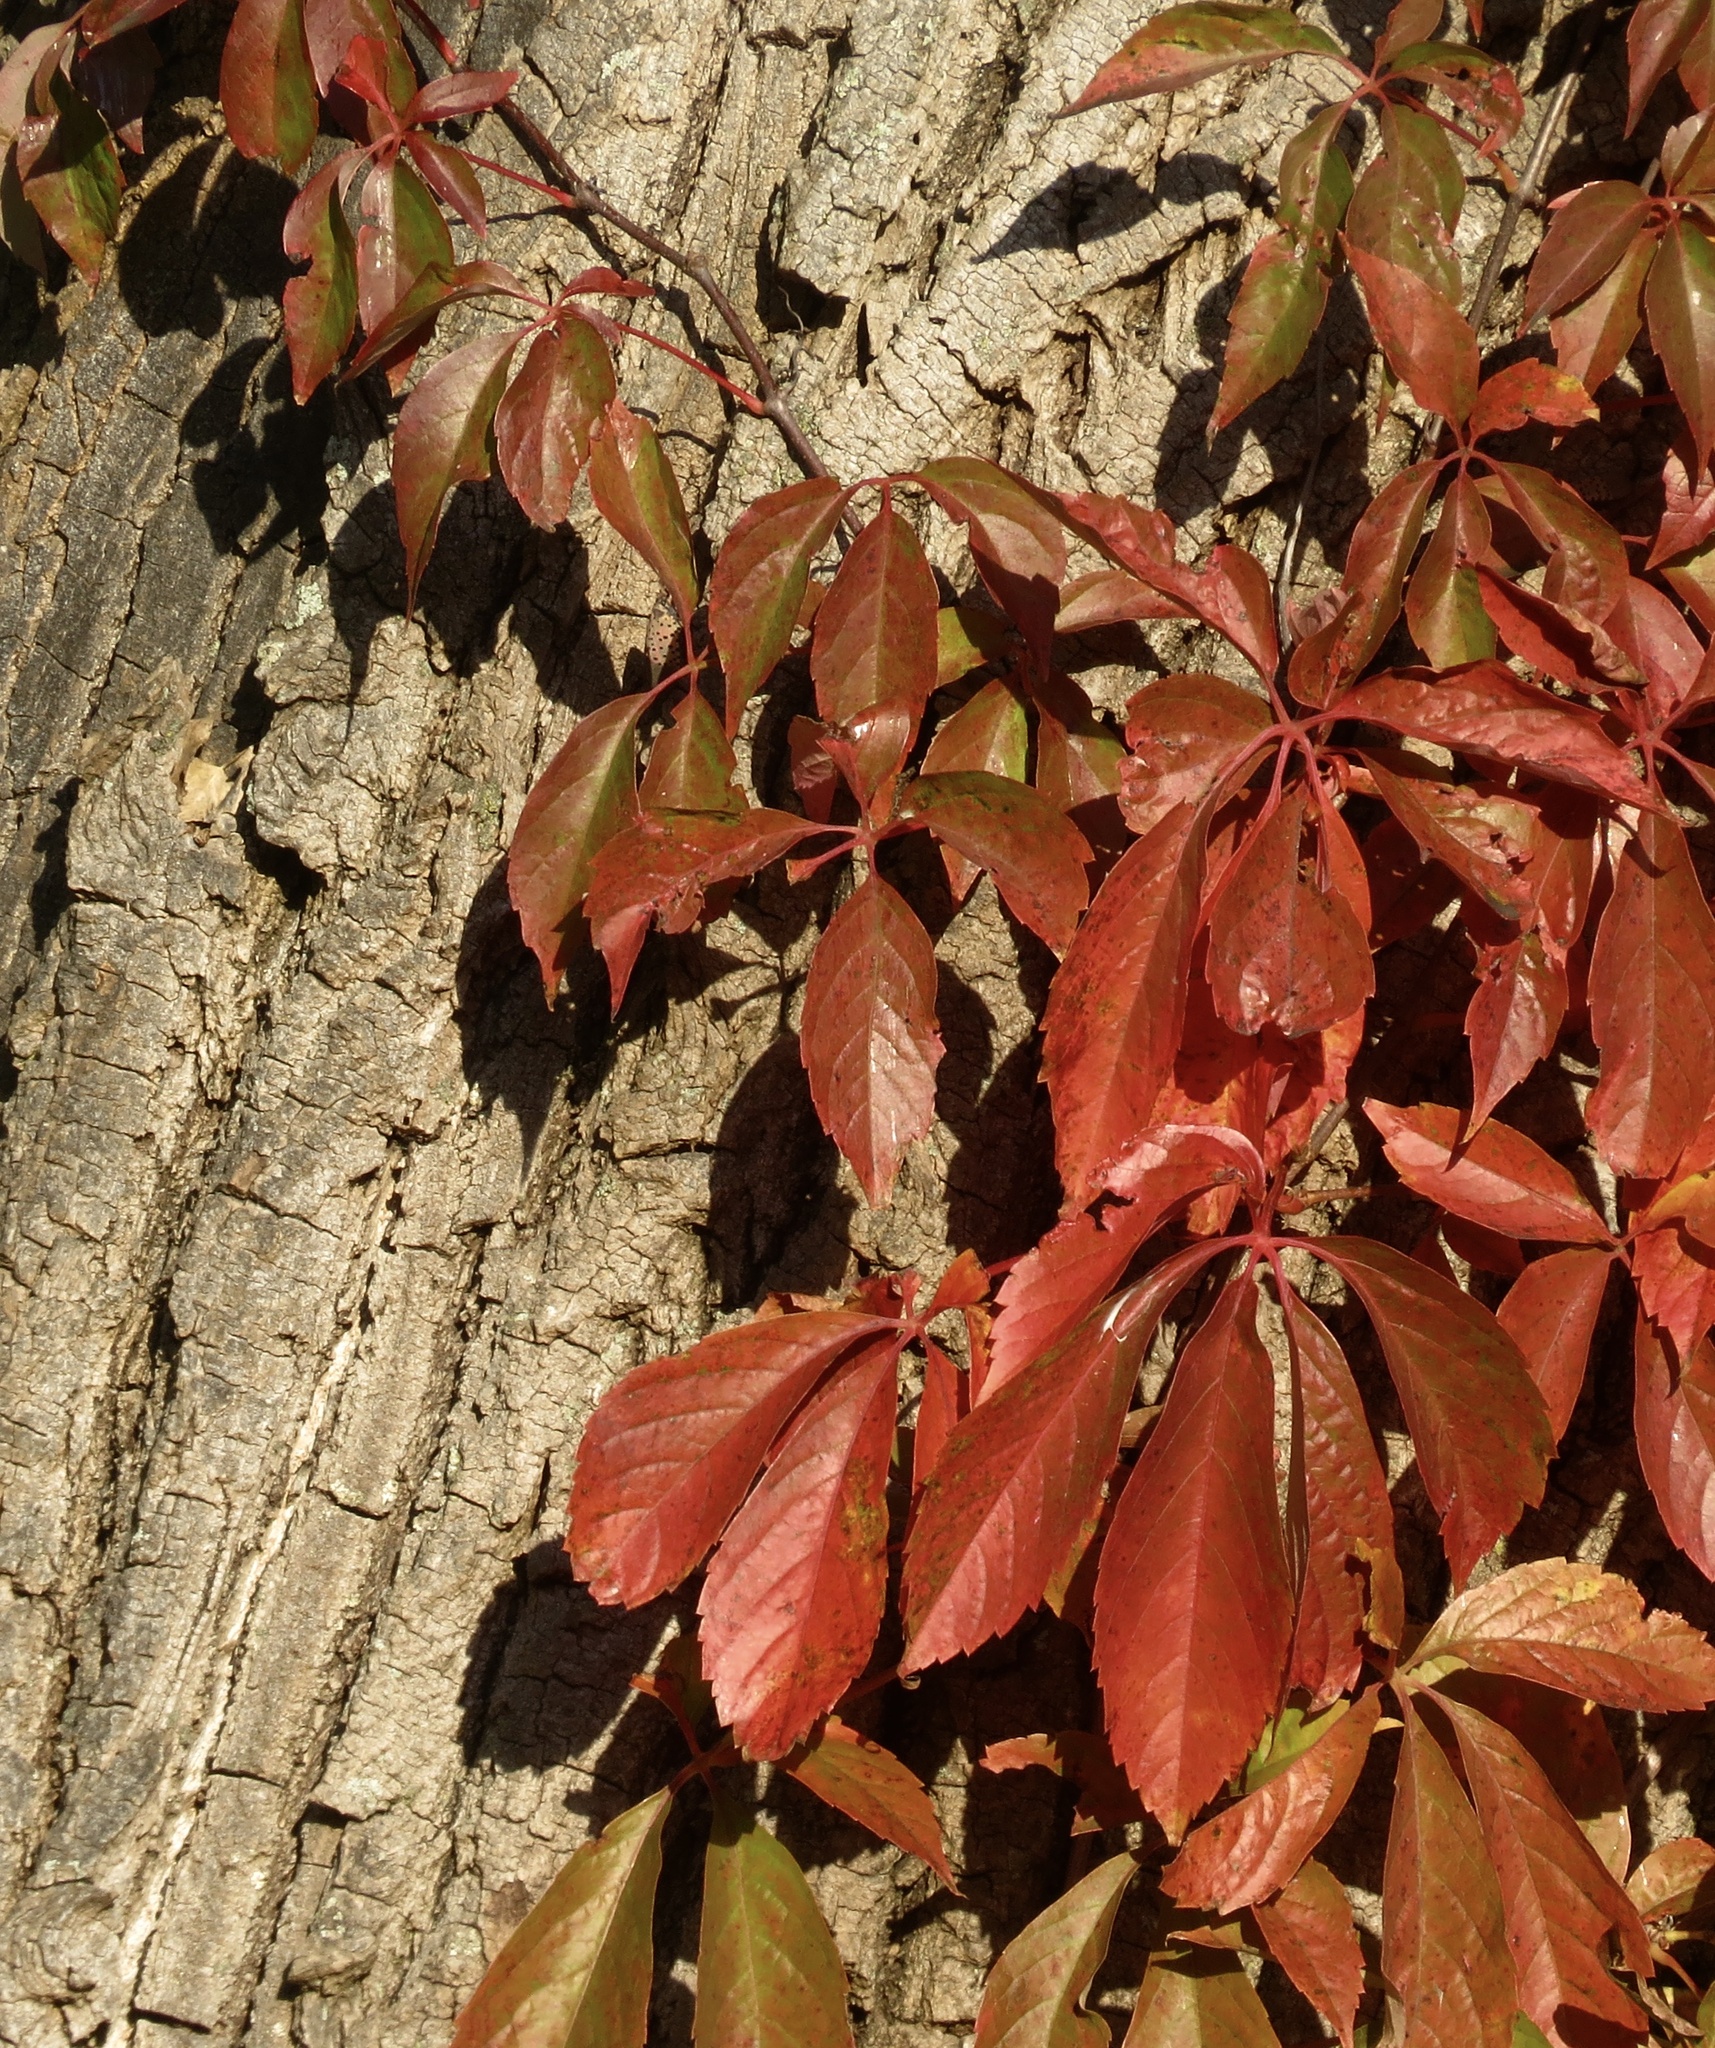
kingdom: Plantae
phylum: Tracheophyta
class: Magnoliopsida
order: Vitales
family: Vitaceae
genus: Parthenocissus
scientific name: Parthenocissus quinquefolia
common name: Virginia-creeper
